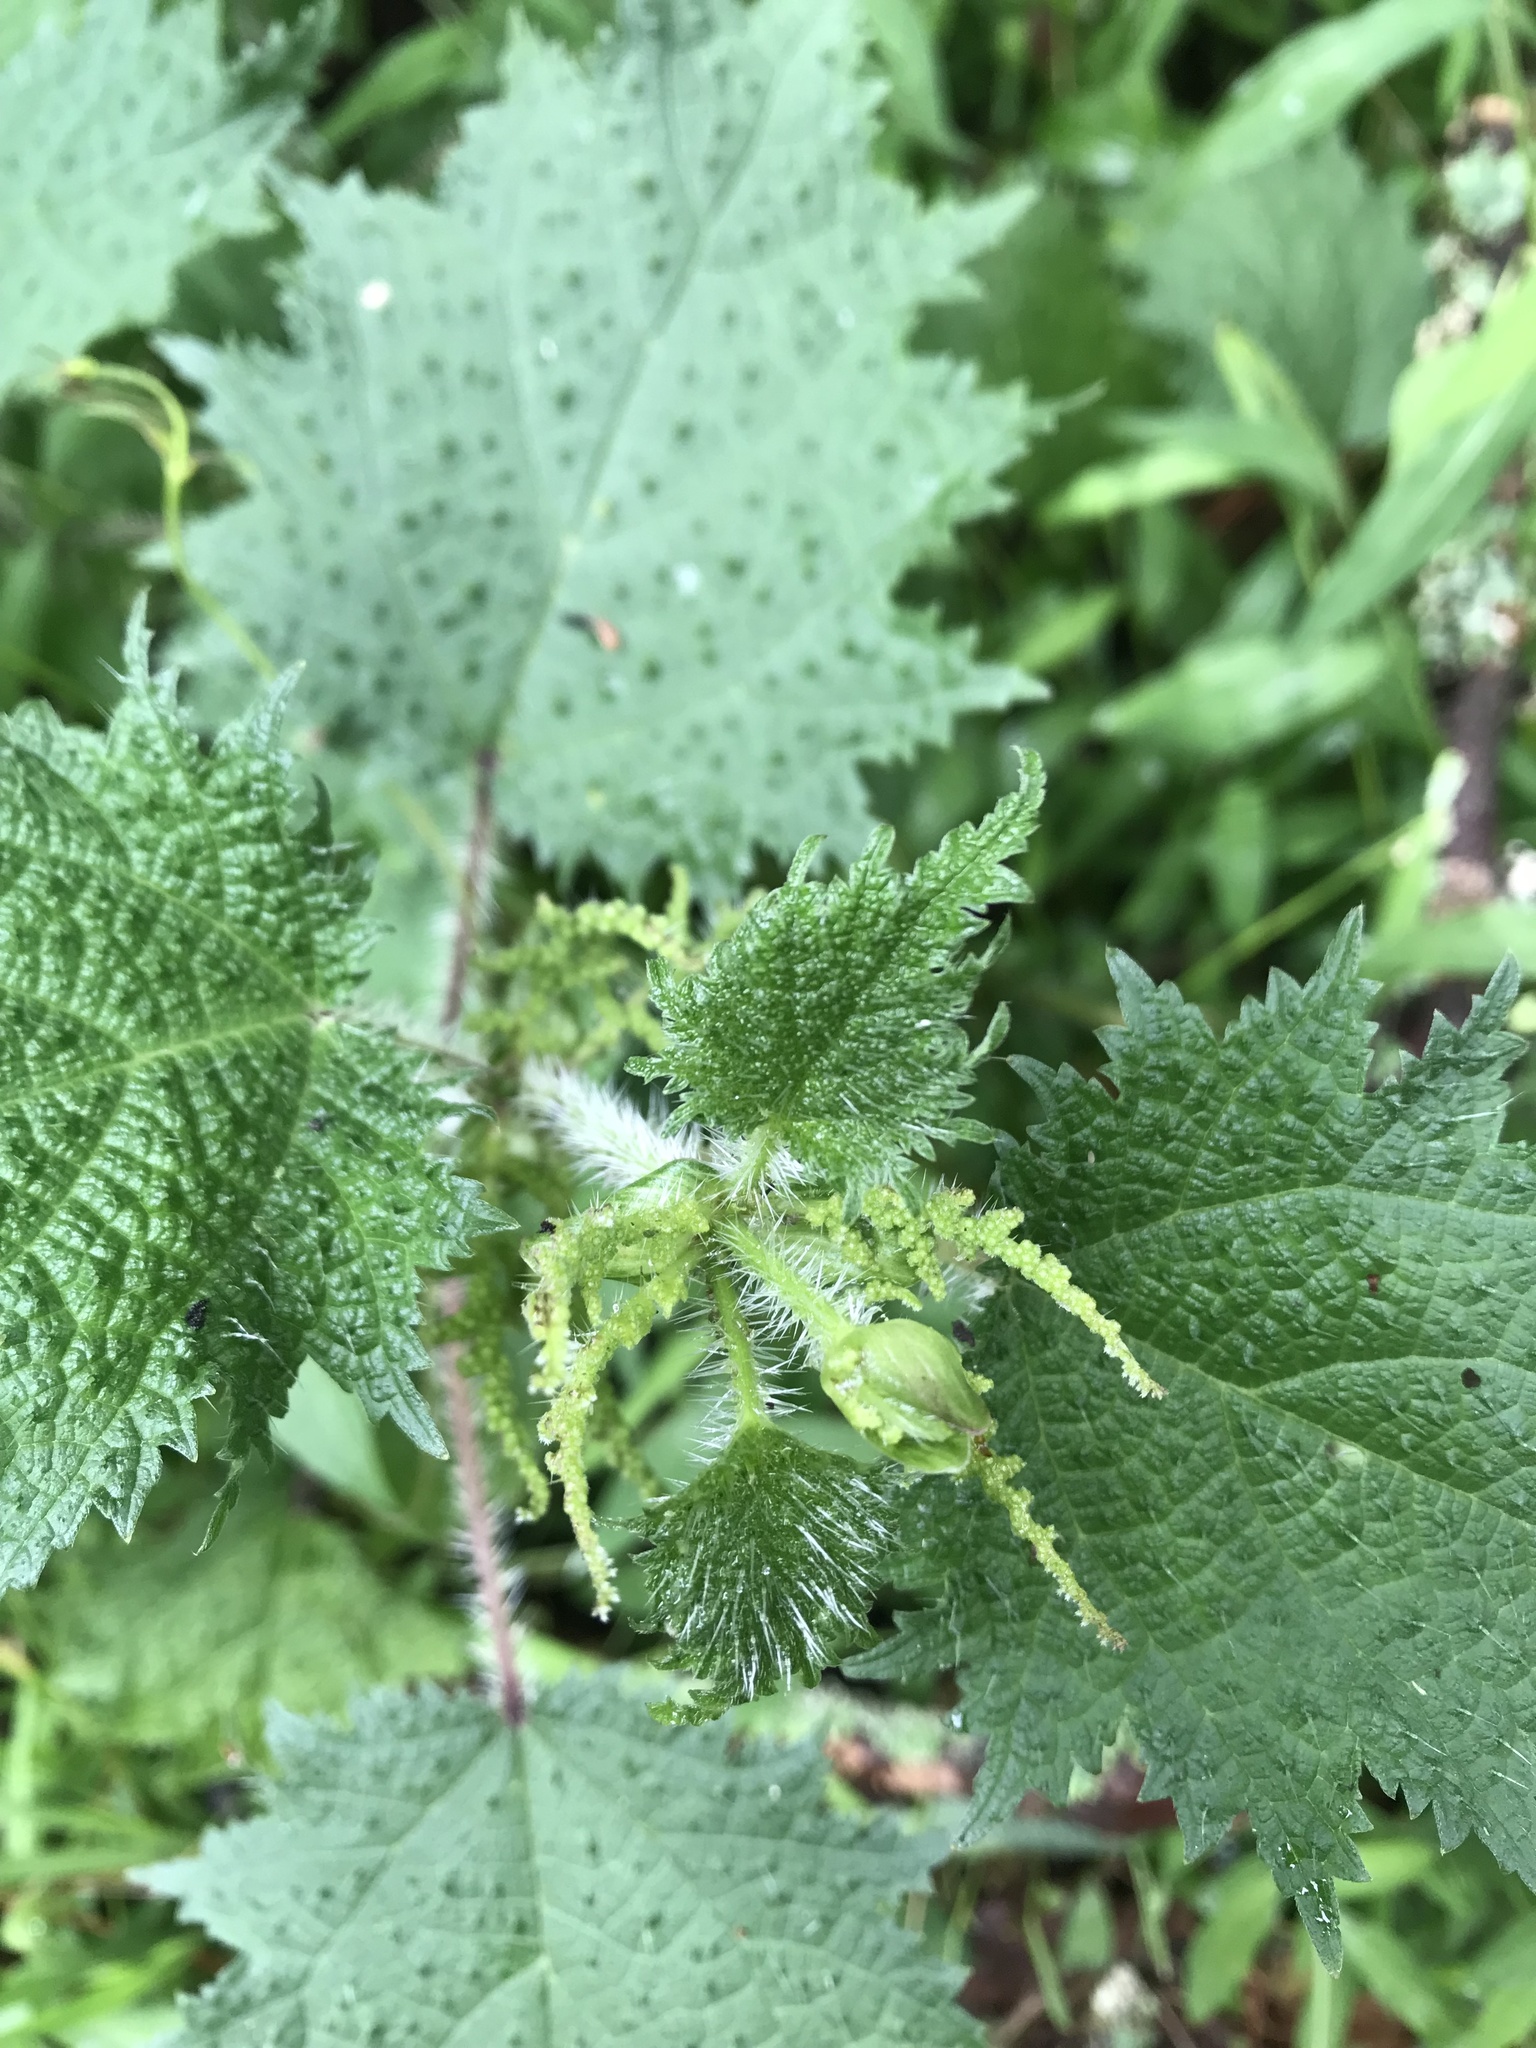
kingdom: Plantae
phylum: Tracheophyta
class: Magnoliopsida
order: Rosales
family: Urticaceae
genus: Urtica
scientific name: Urtica thunbergiana
